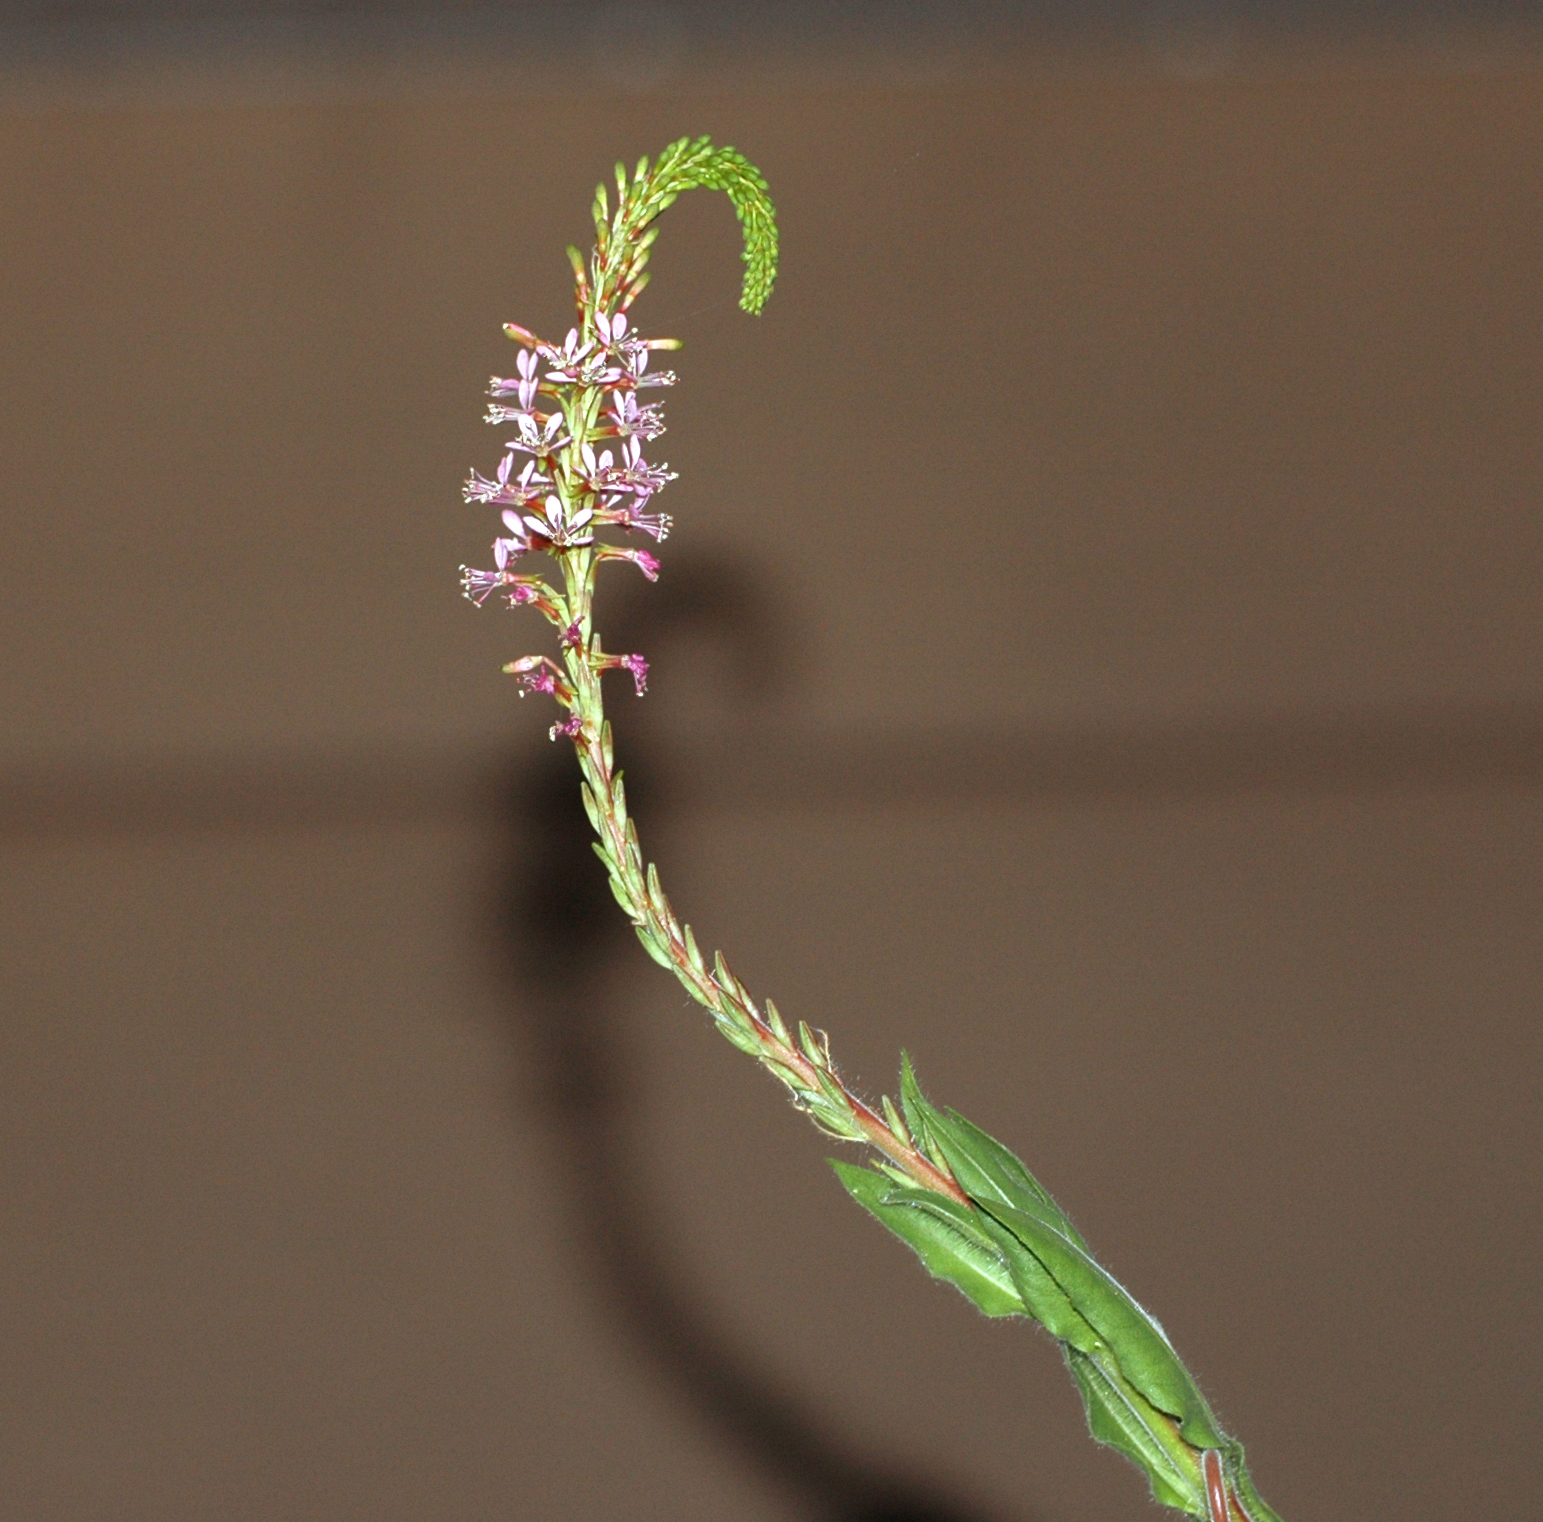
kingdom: Plantae
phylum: Tracheophyta
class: Magnoliopsida
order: Myrtales
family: Onagraceae
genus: Oenothera
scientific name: Oenothera curtiflora
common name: Velvetweed
